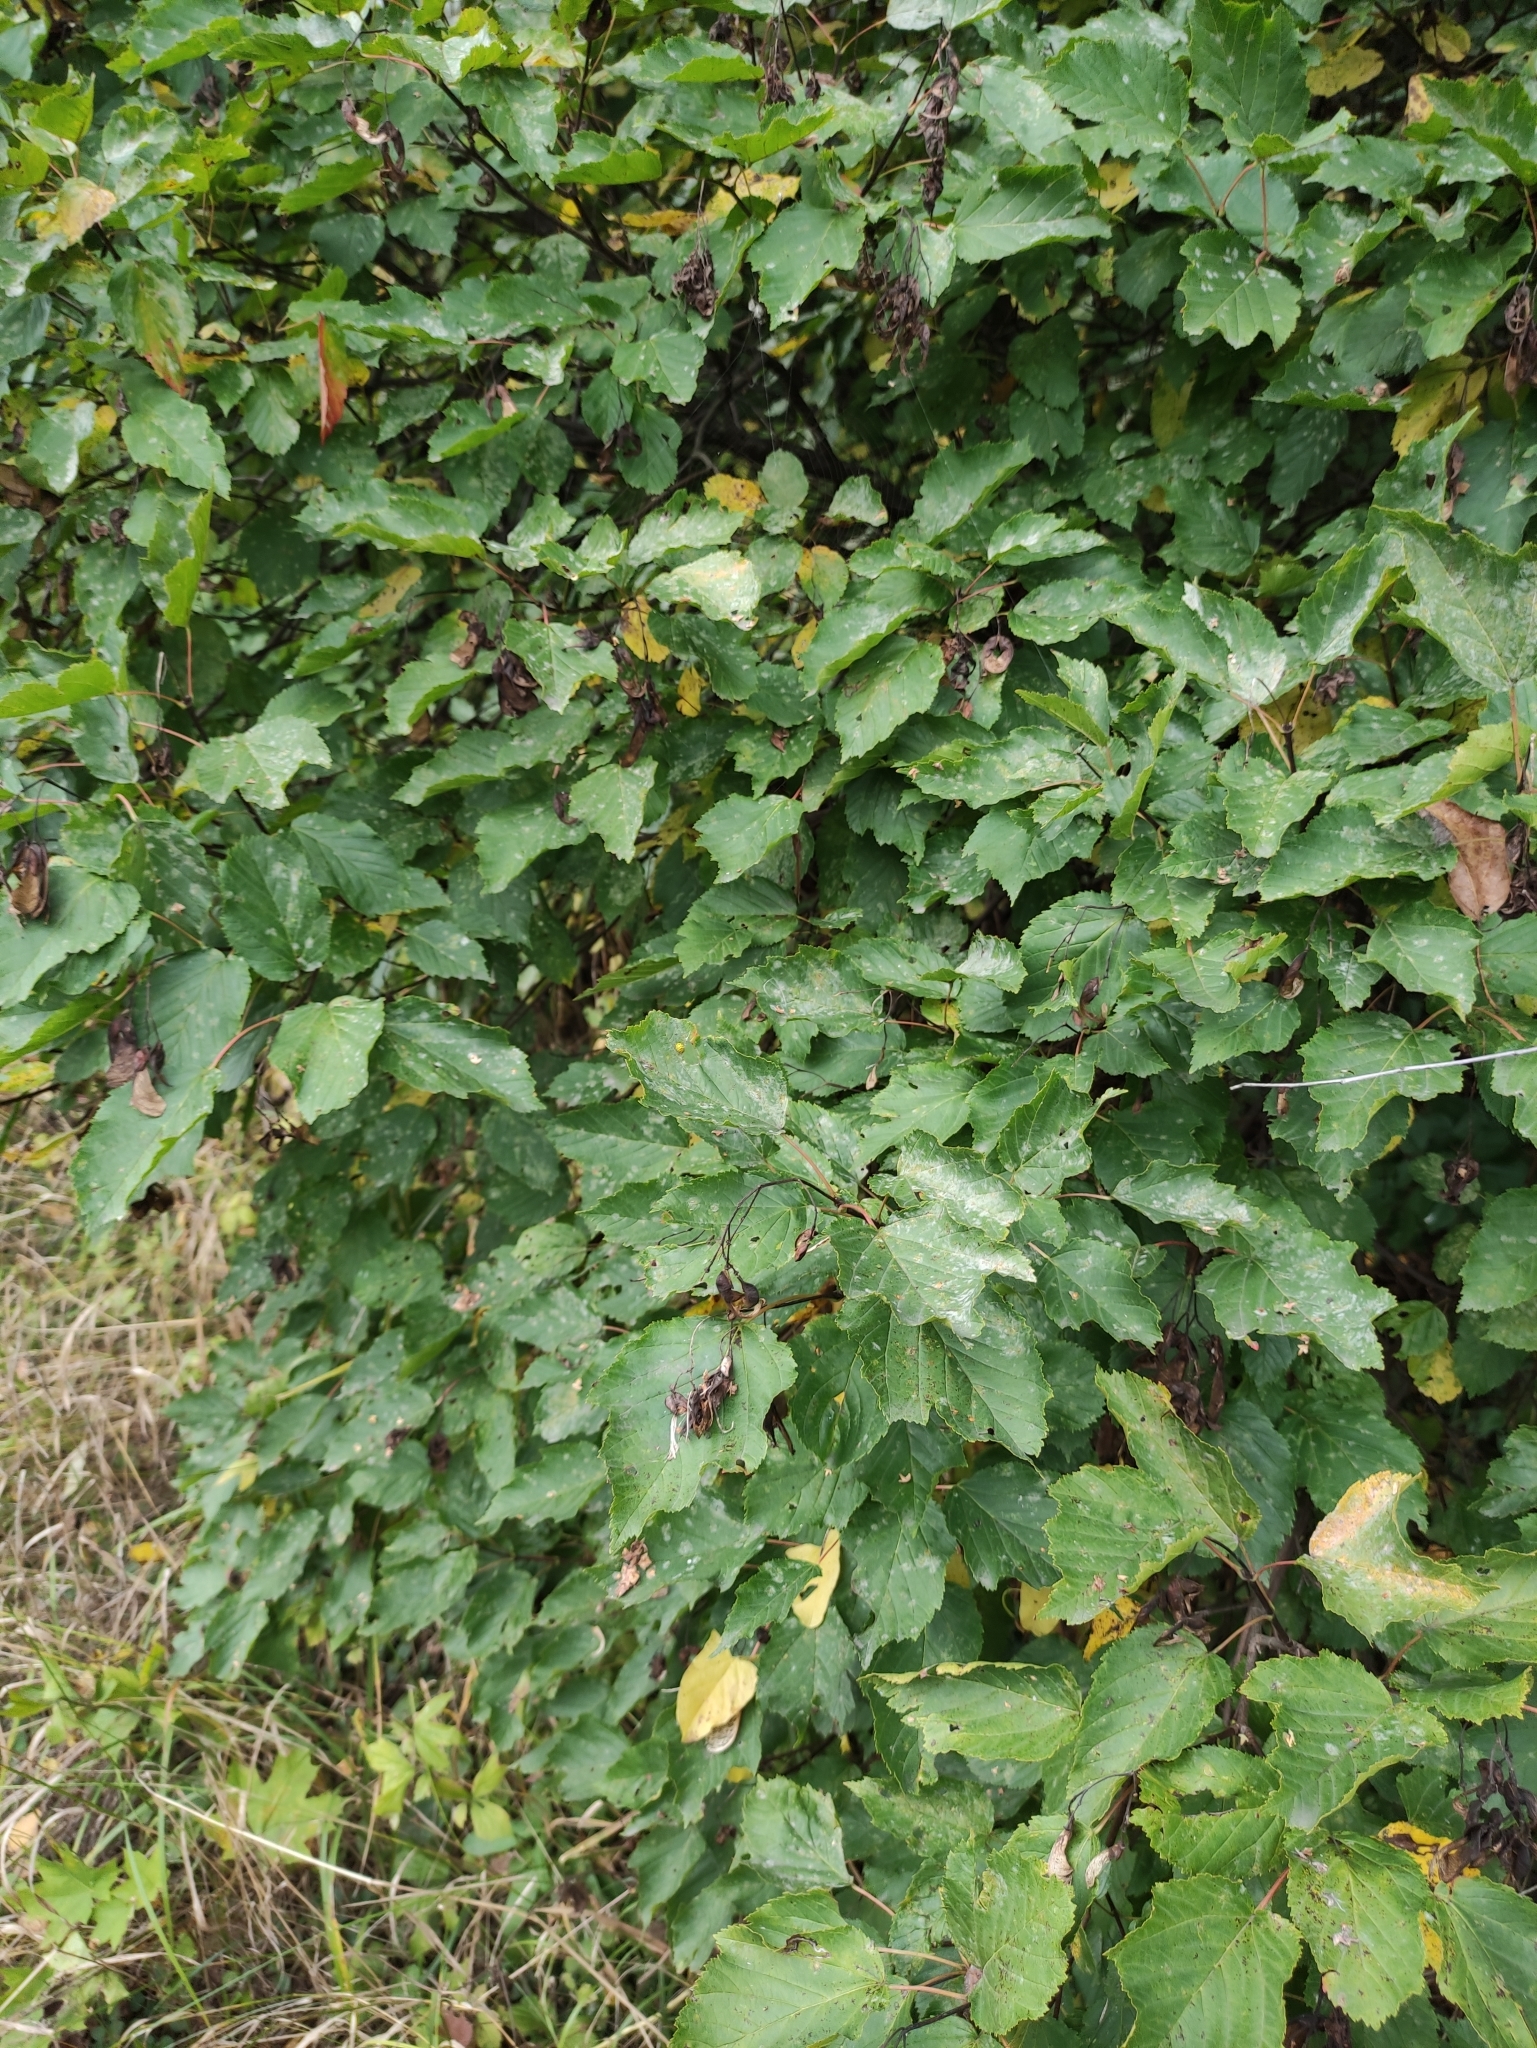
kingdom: Plantae
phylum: Tracheophyta
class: Magnoliopsida
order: Sapindales
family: Sapindaceae
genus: Acer
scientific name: Acer tataricum
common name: Tartar maple
